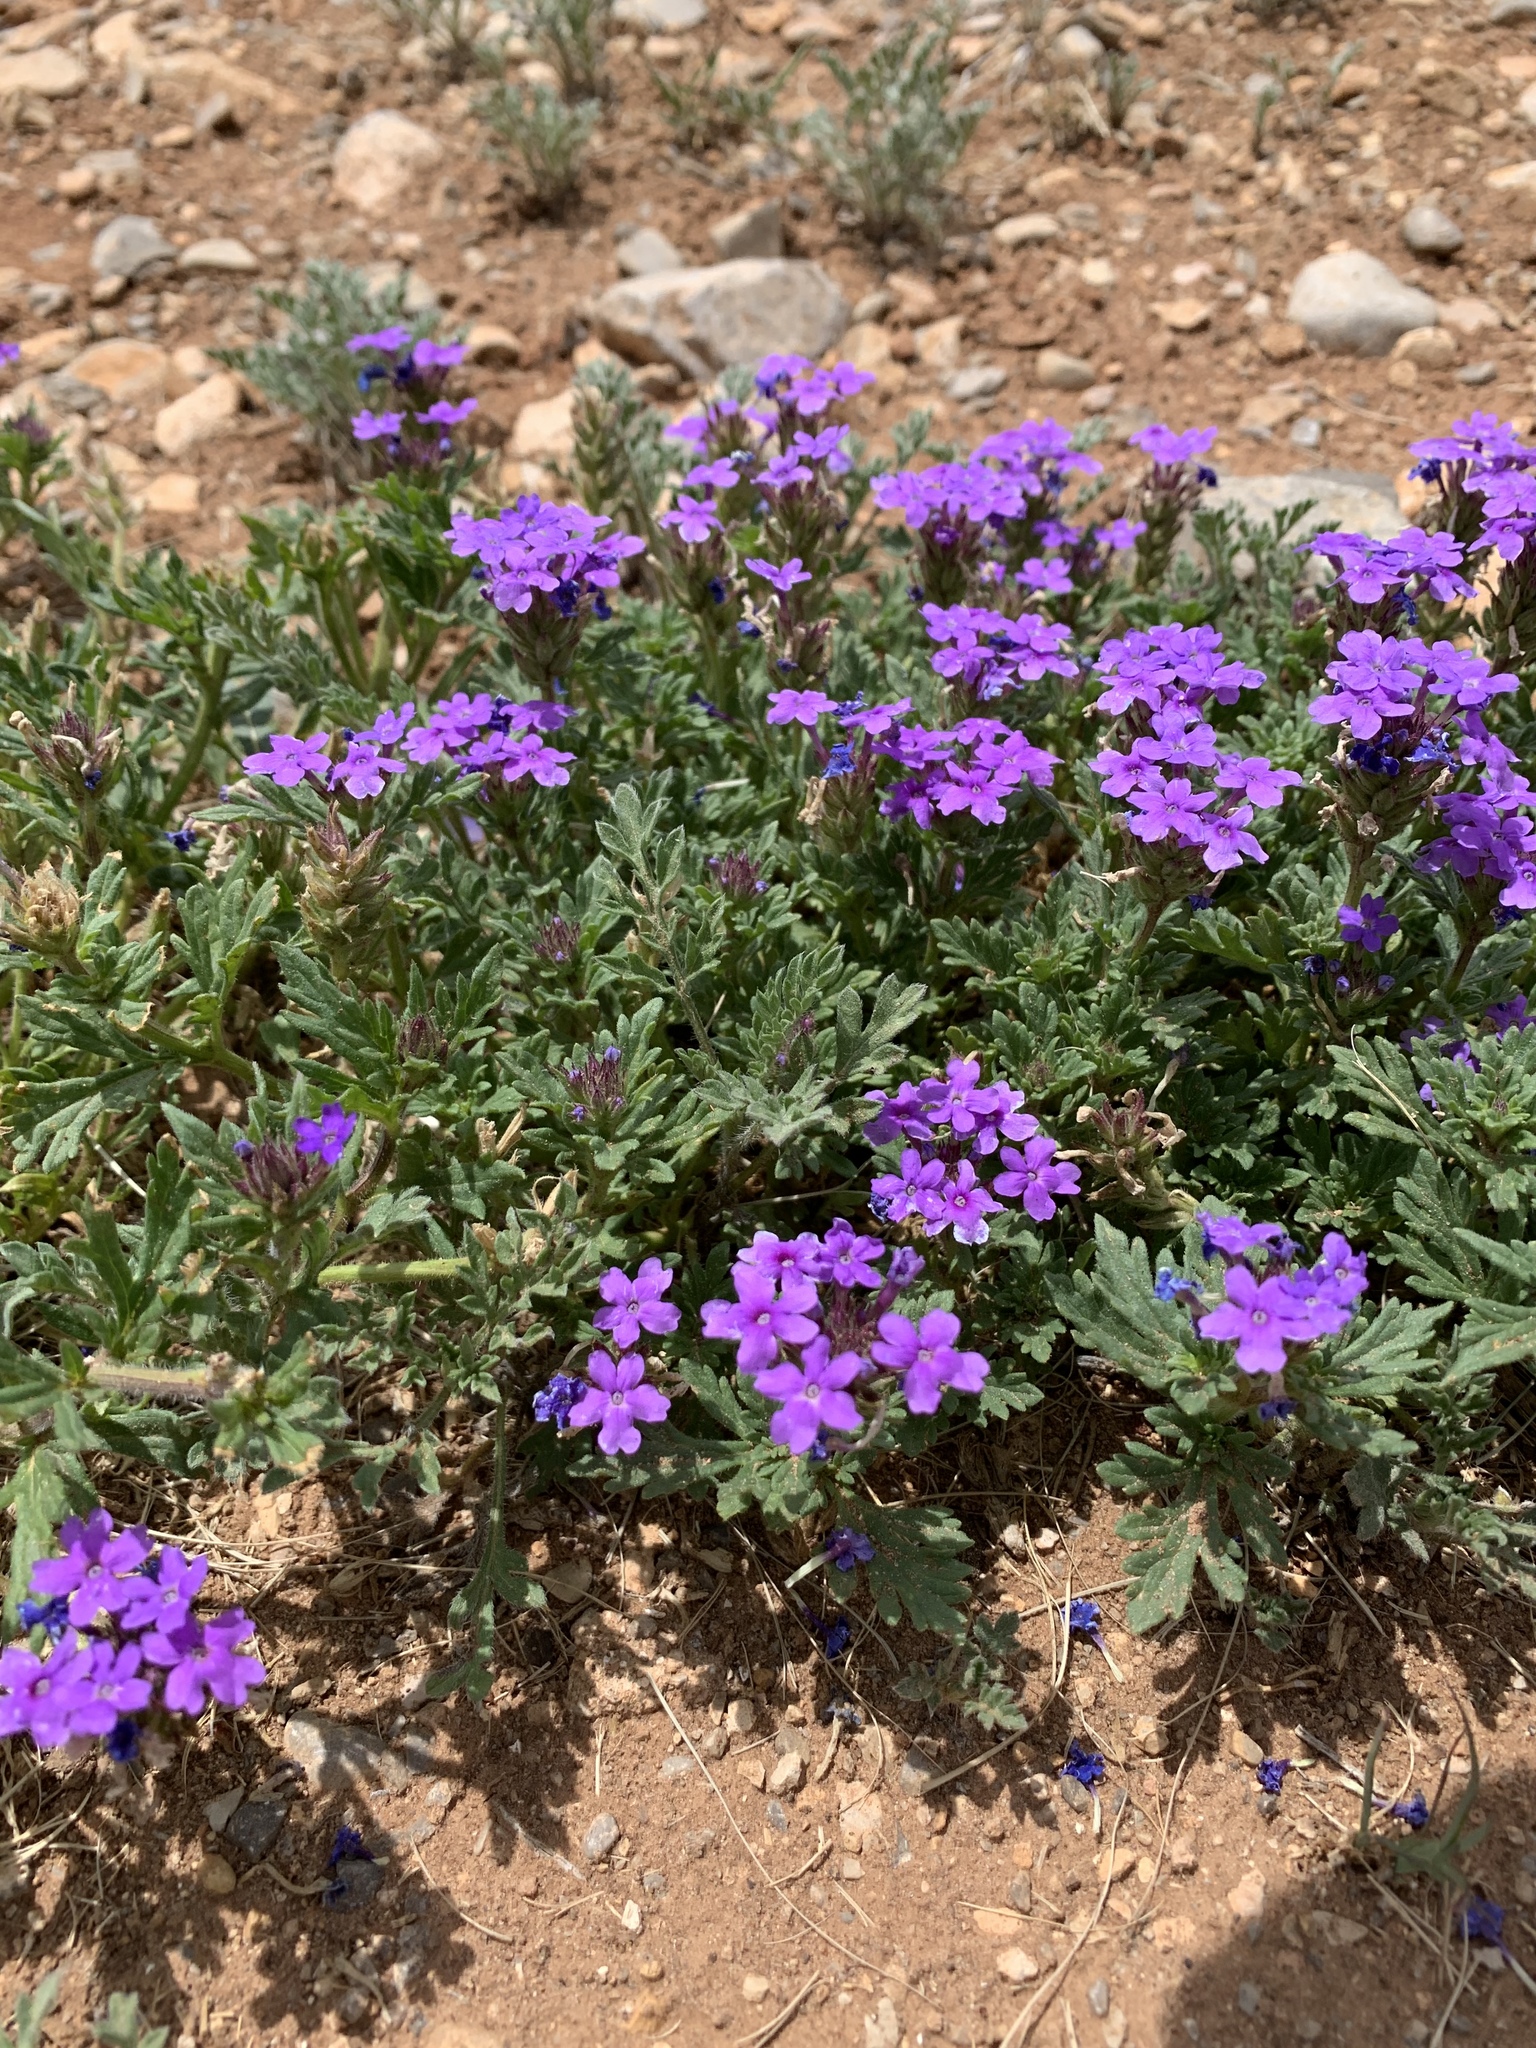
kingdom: Plantae
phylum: Tracheophyta
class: Magnoliopsida
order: Lamiales
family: Verbenaceae
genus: Verbena
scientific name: Verbena bipinnatifida
